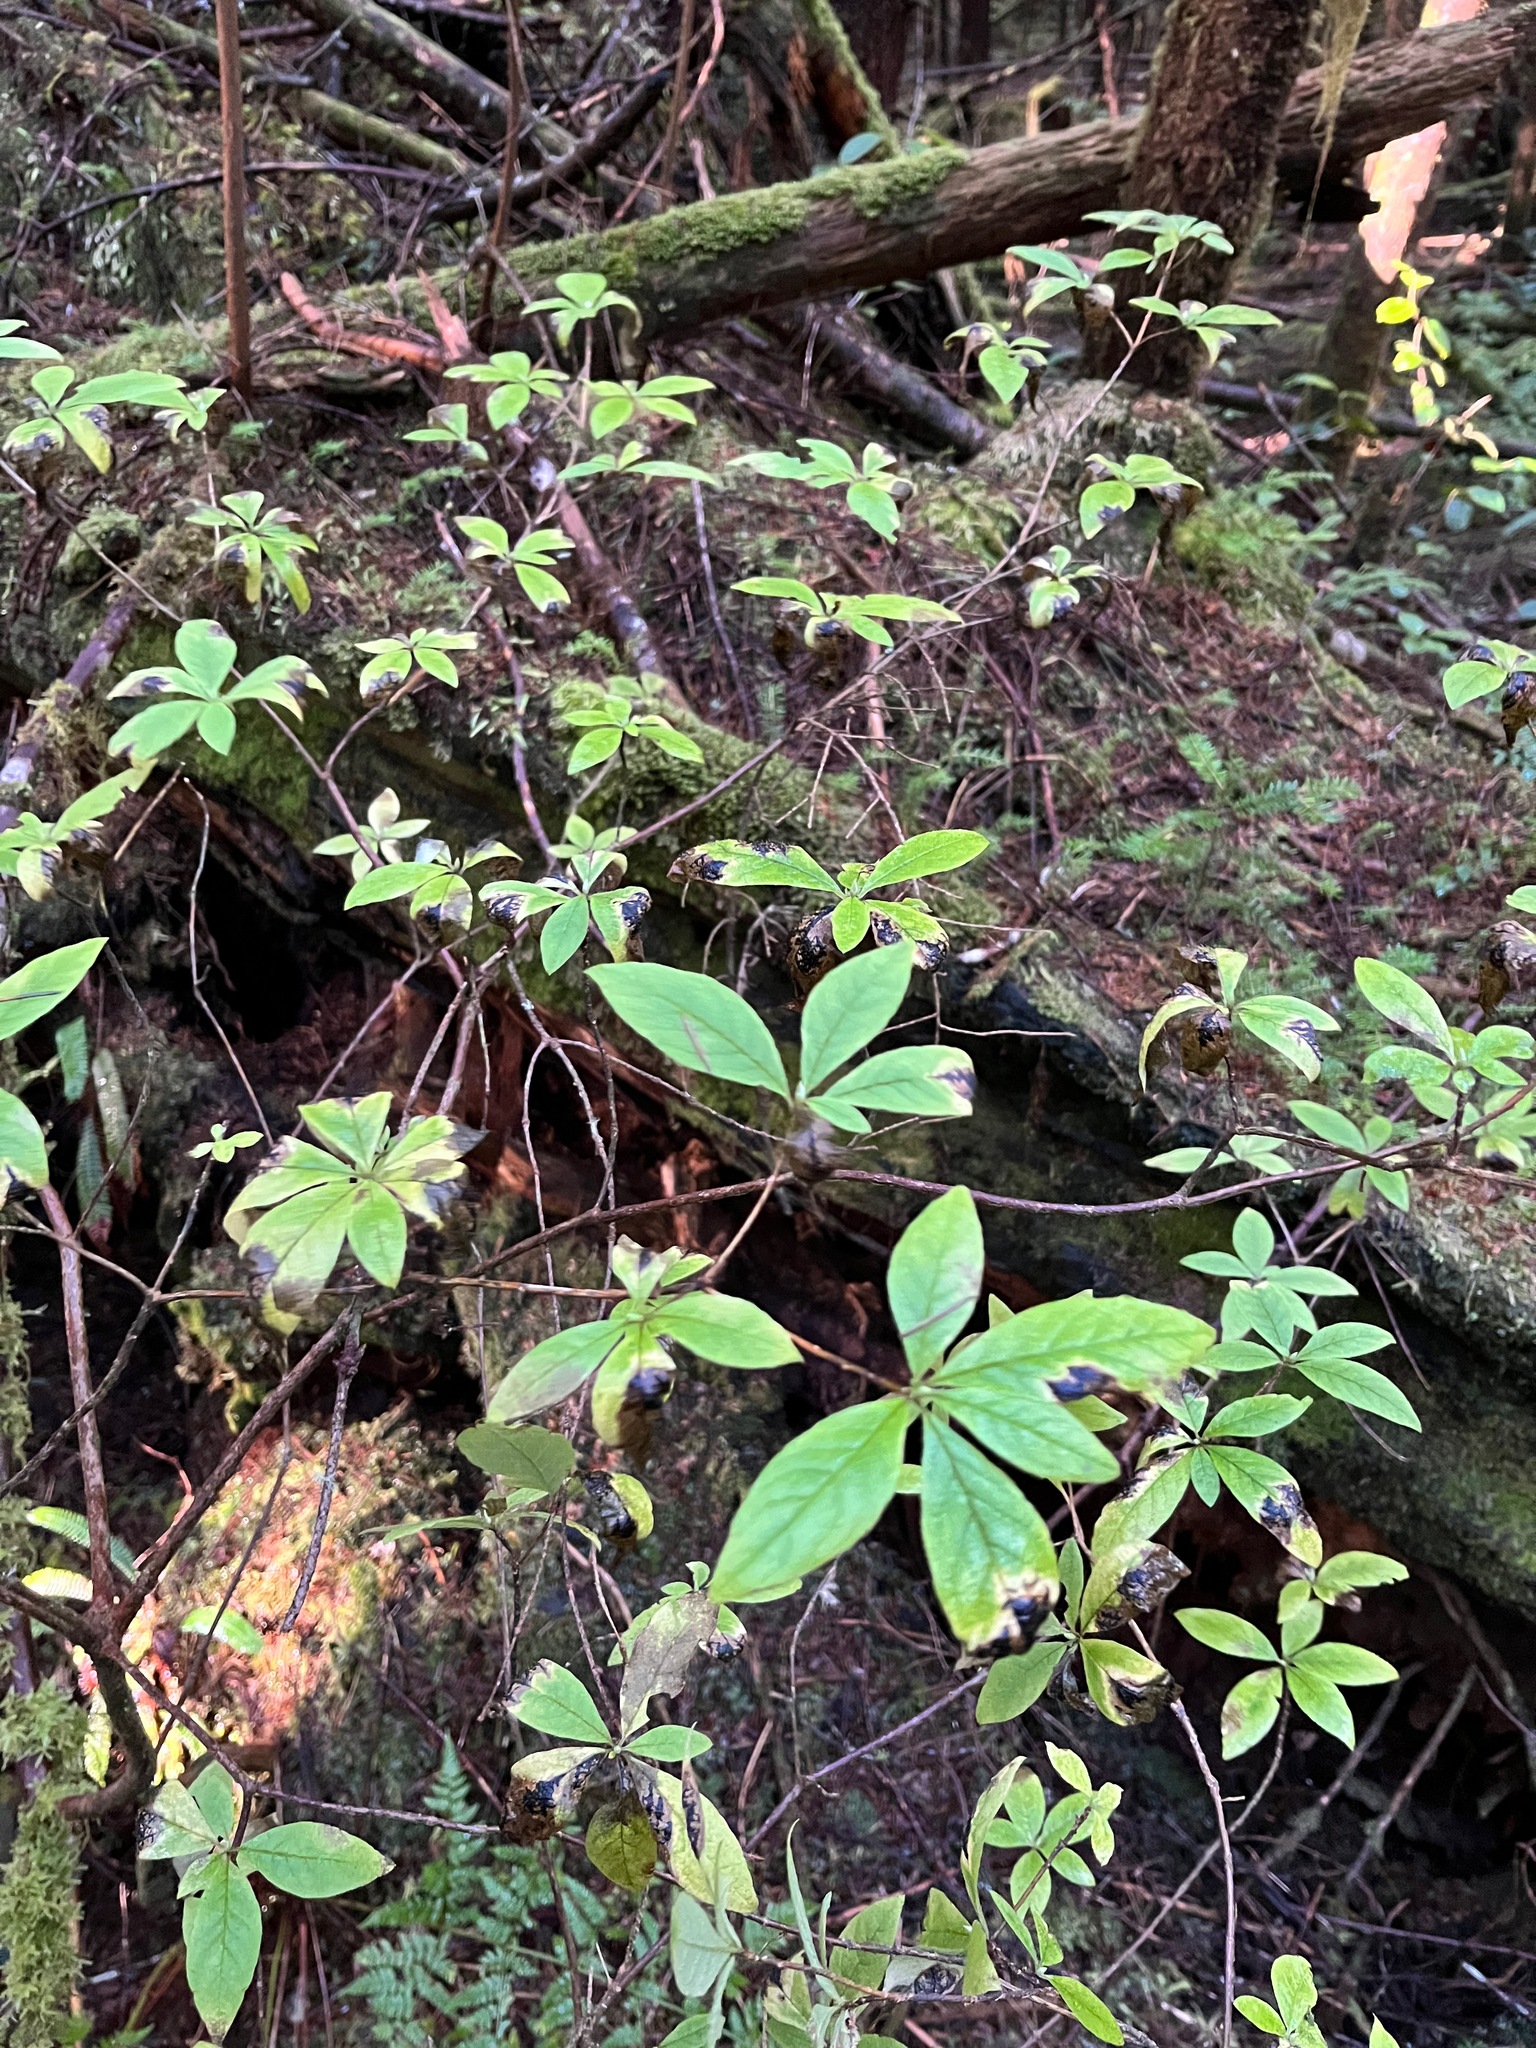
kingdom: Plantae
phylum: Tracheophyta
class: Magnoliopsida
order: Ericales
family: Ericaceae
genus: Rhododendron
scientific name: Rhododendron menziesii
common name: Pacific menziesia
